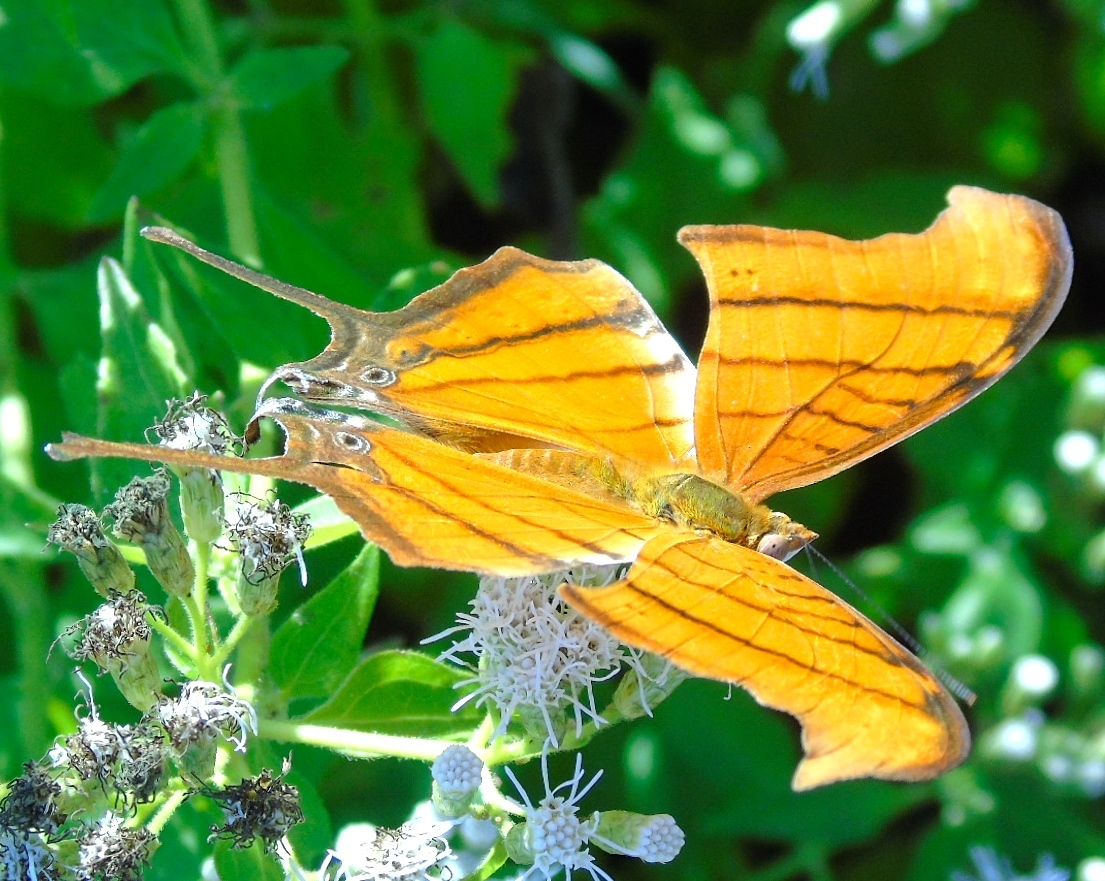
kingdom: Animalia
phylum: Arthropoda
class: Insecta
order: Lepidoptera
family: Nymphalidae
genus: Marpesia
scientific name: Marpesia petreus
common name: Red dagger wing
